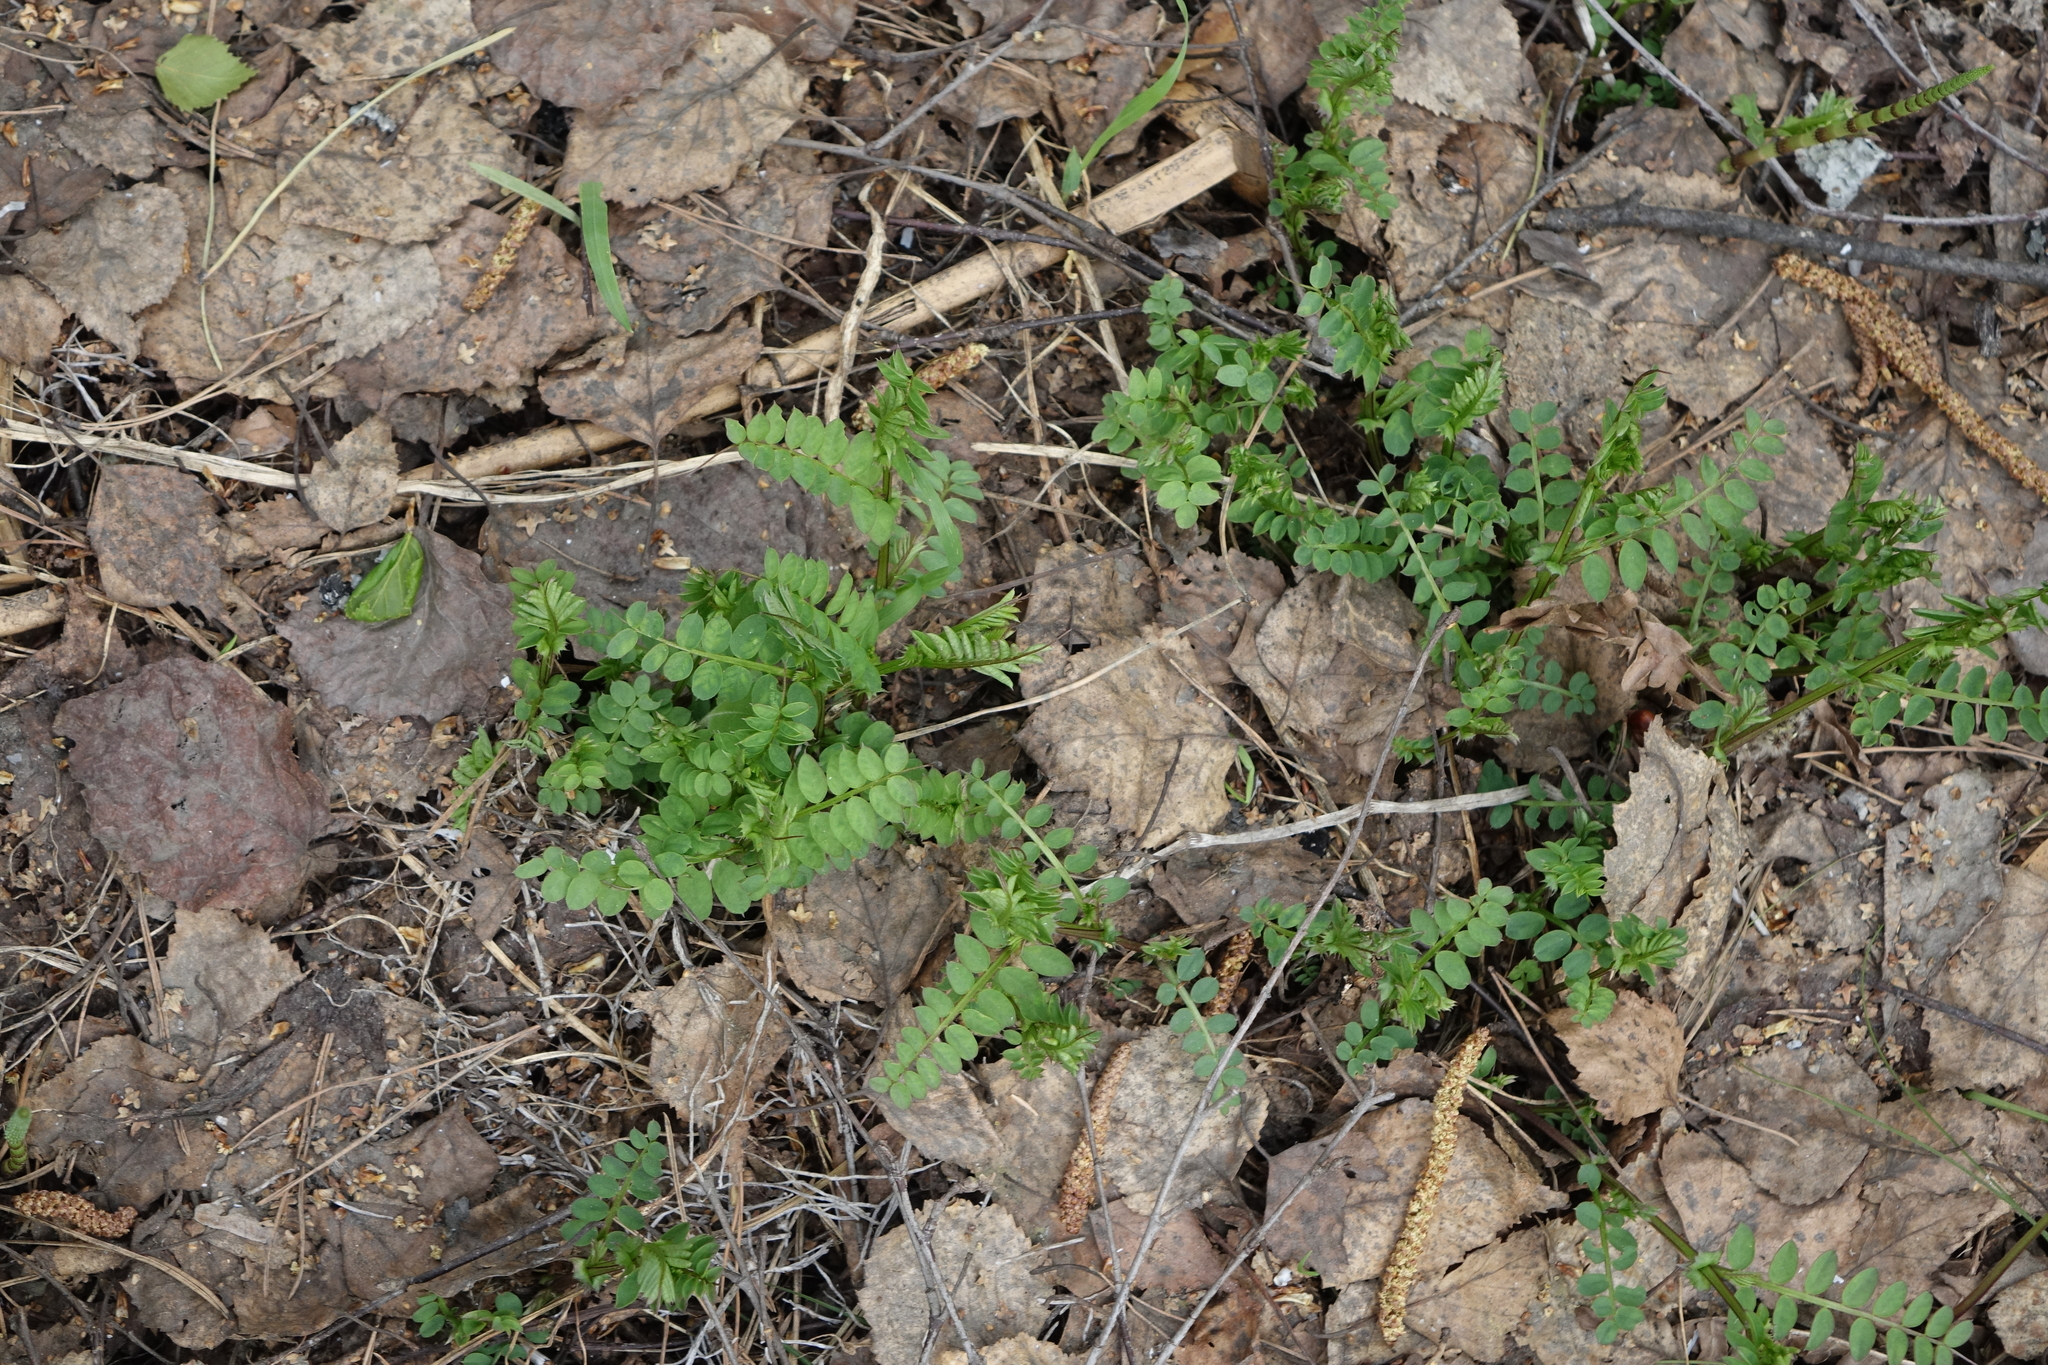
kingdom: Plantae
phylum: Tracheophyta
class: Magnoliopsida
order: Ericales
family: Polemoniaceae
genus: Polemonium
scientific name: Polemonium caeruleum
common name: Jacob's-ladder
